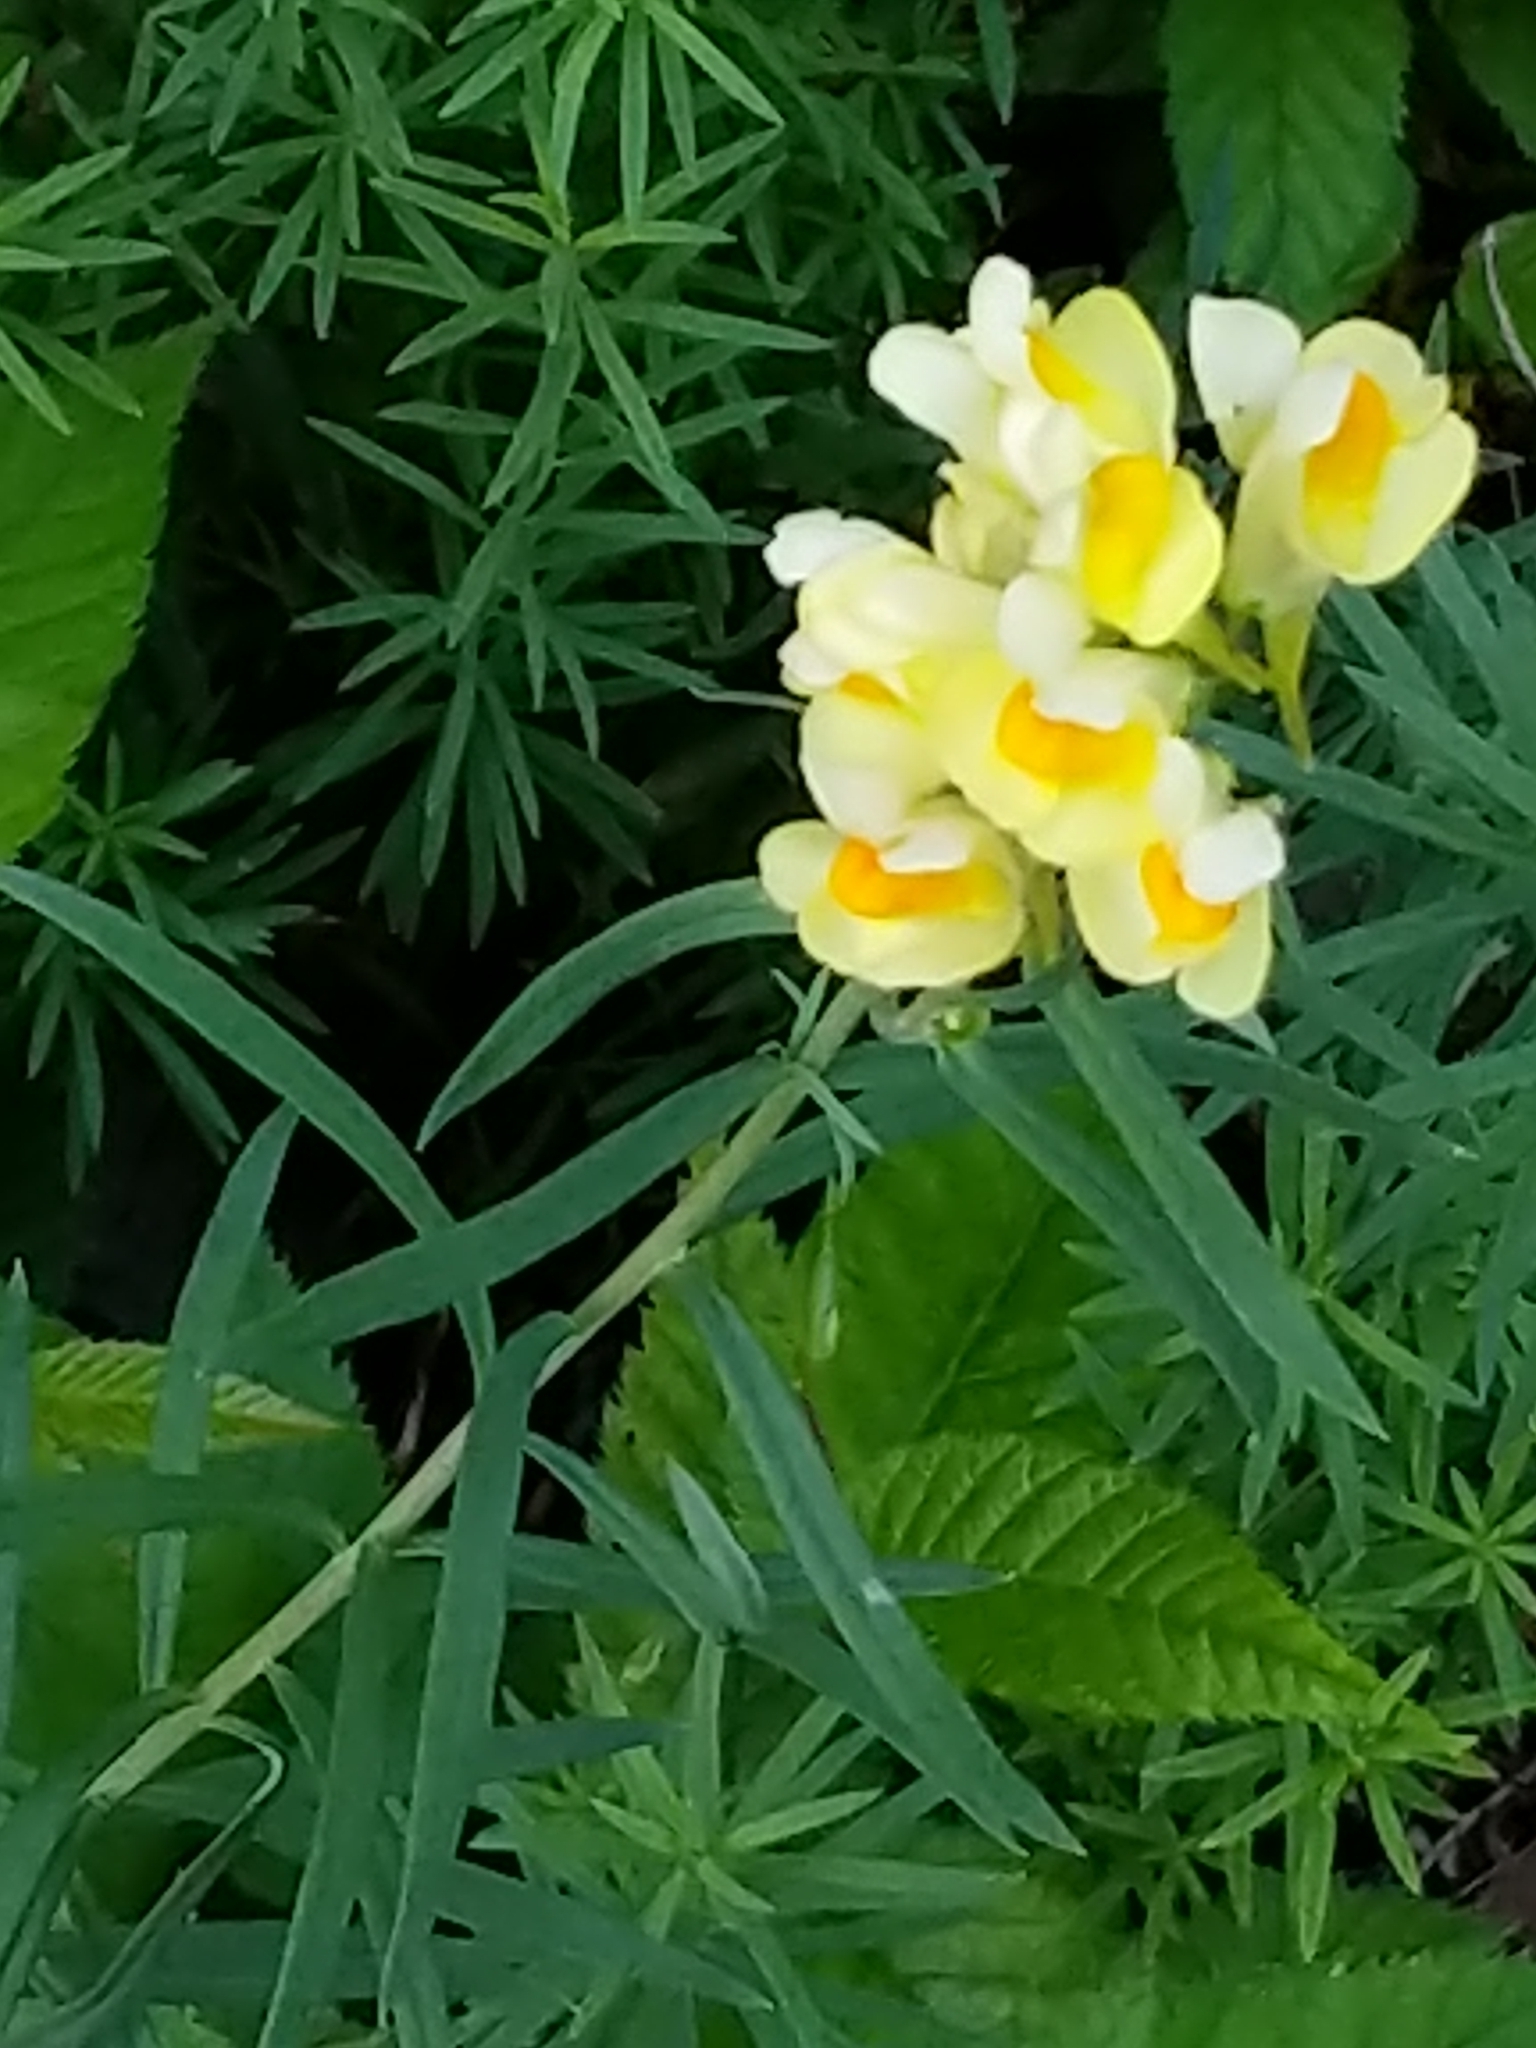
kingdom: Plantae
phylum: Tracheophyta
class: Magnoliopsida
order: Lamiales
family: Plantaginaceae
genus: Linaria
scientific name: Linaria vulgaris
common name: Butter and eggs
